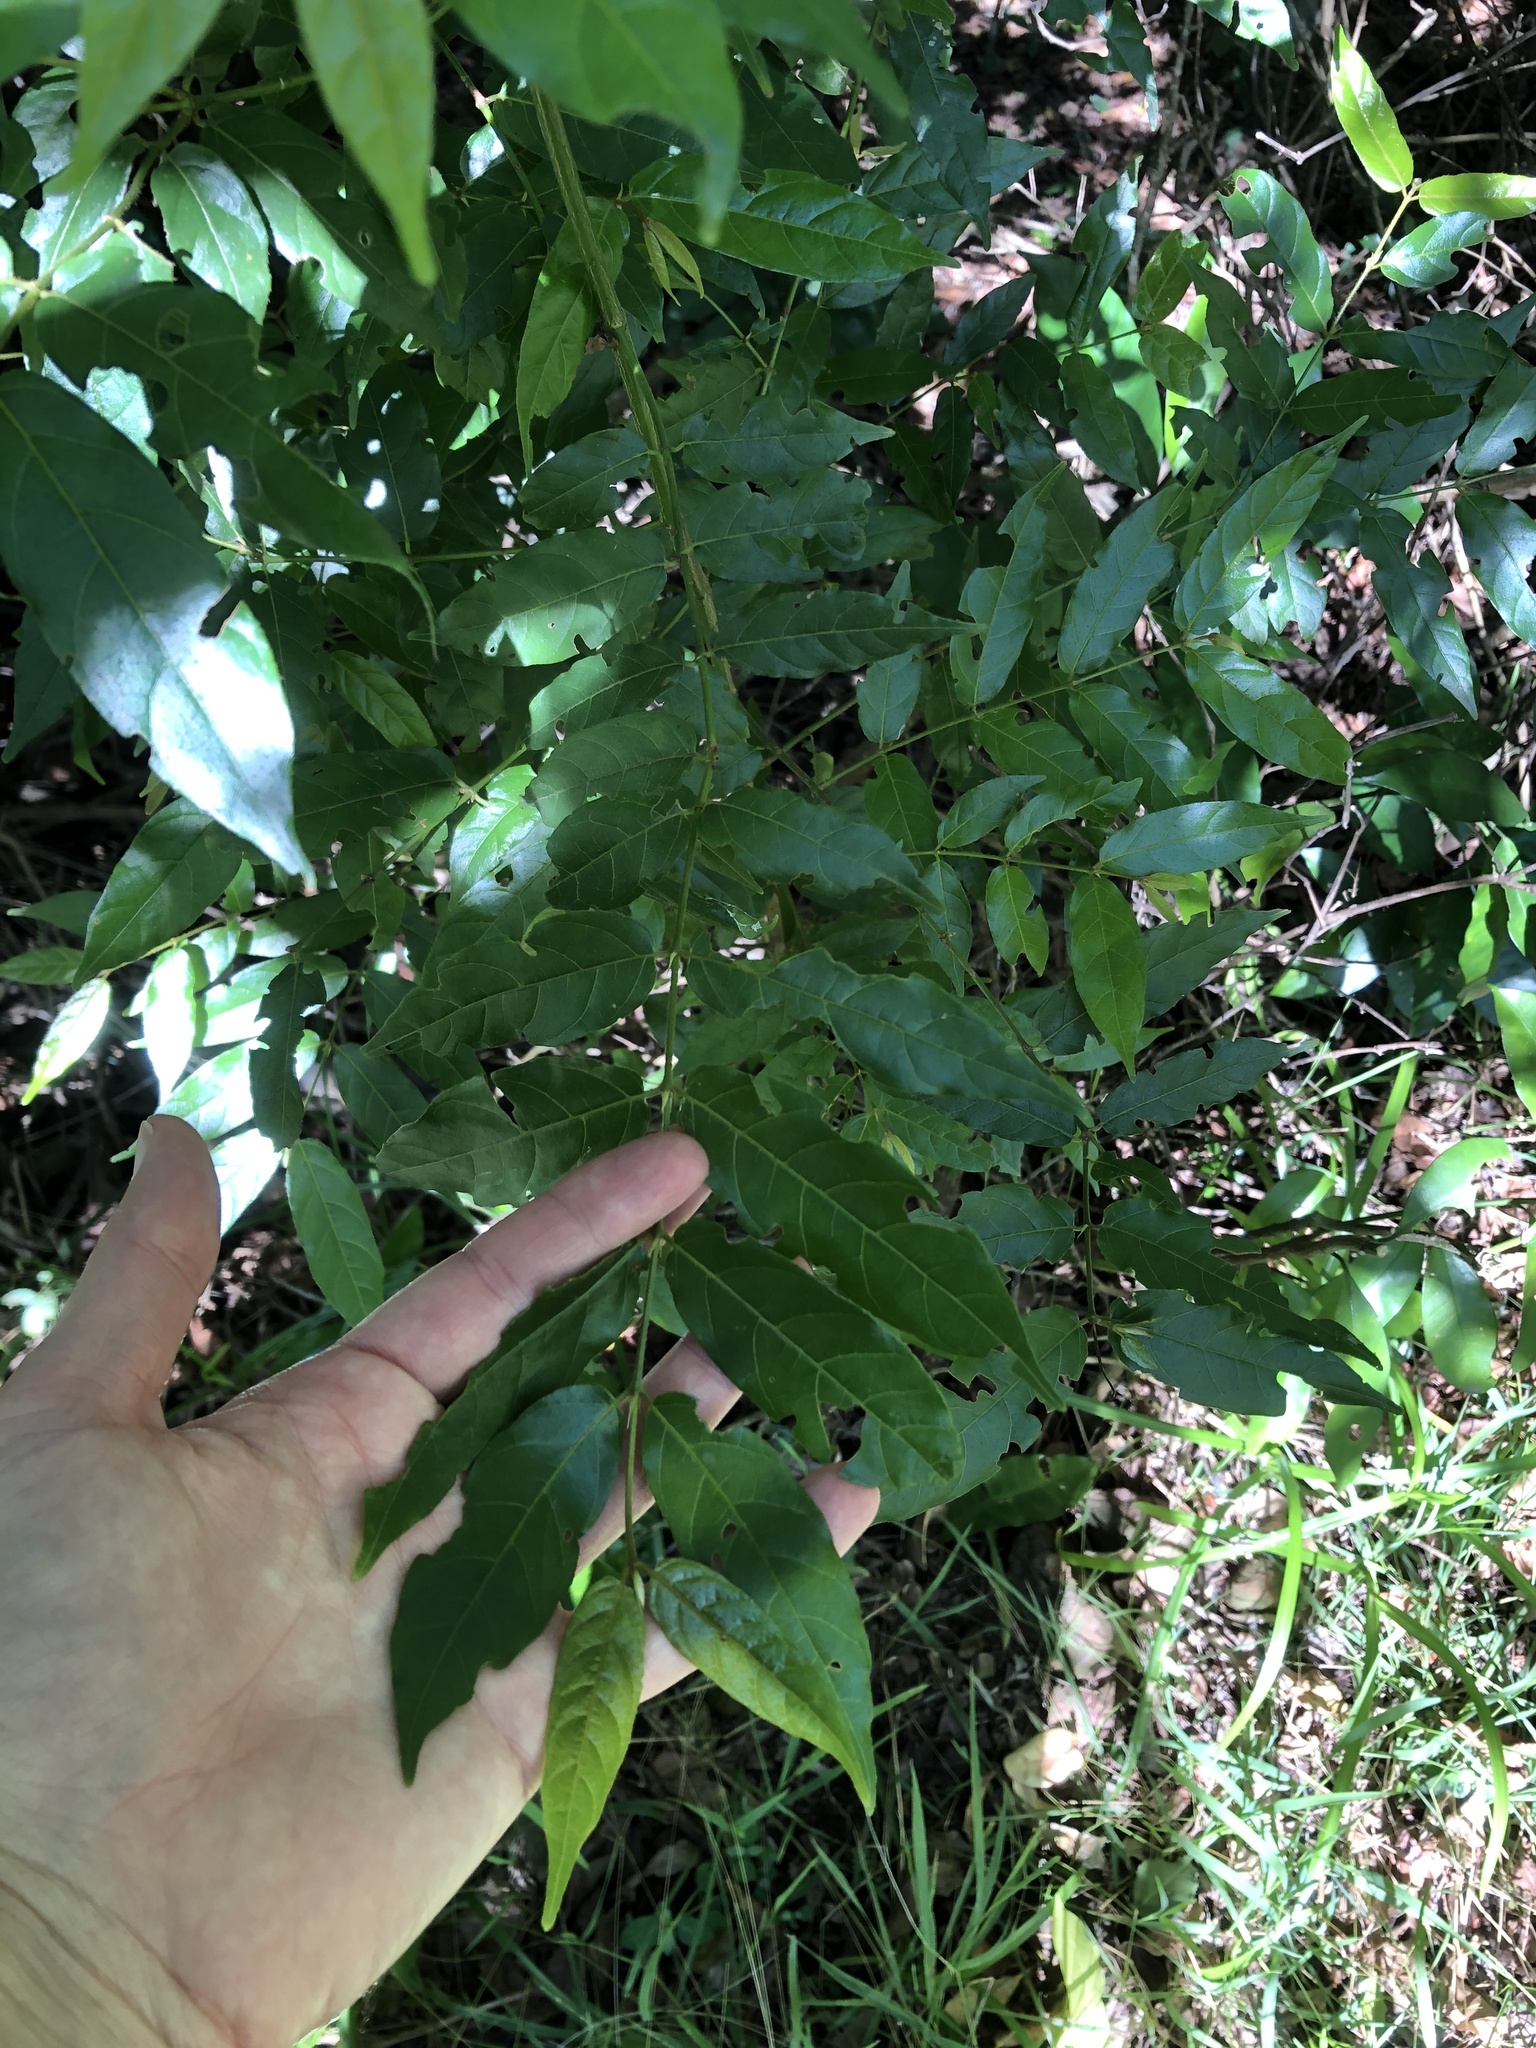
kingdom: Plantae
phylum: Tracheophyta
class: Magnoliopsida
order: Gentianales
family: Rubiaceae
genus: Keetia
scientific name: Keetia gueinzii
